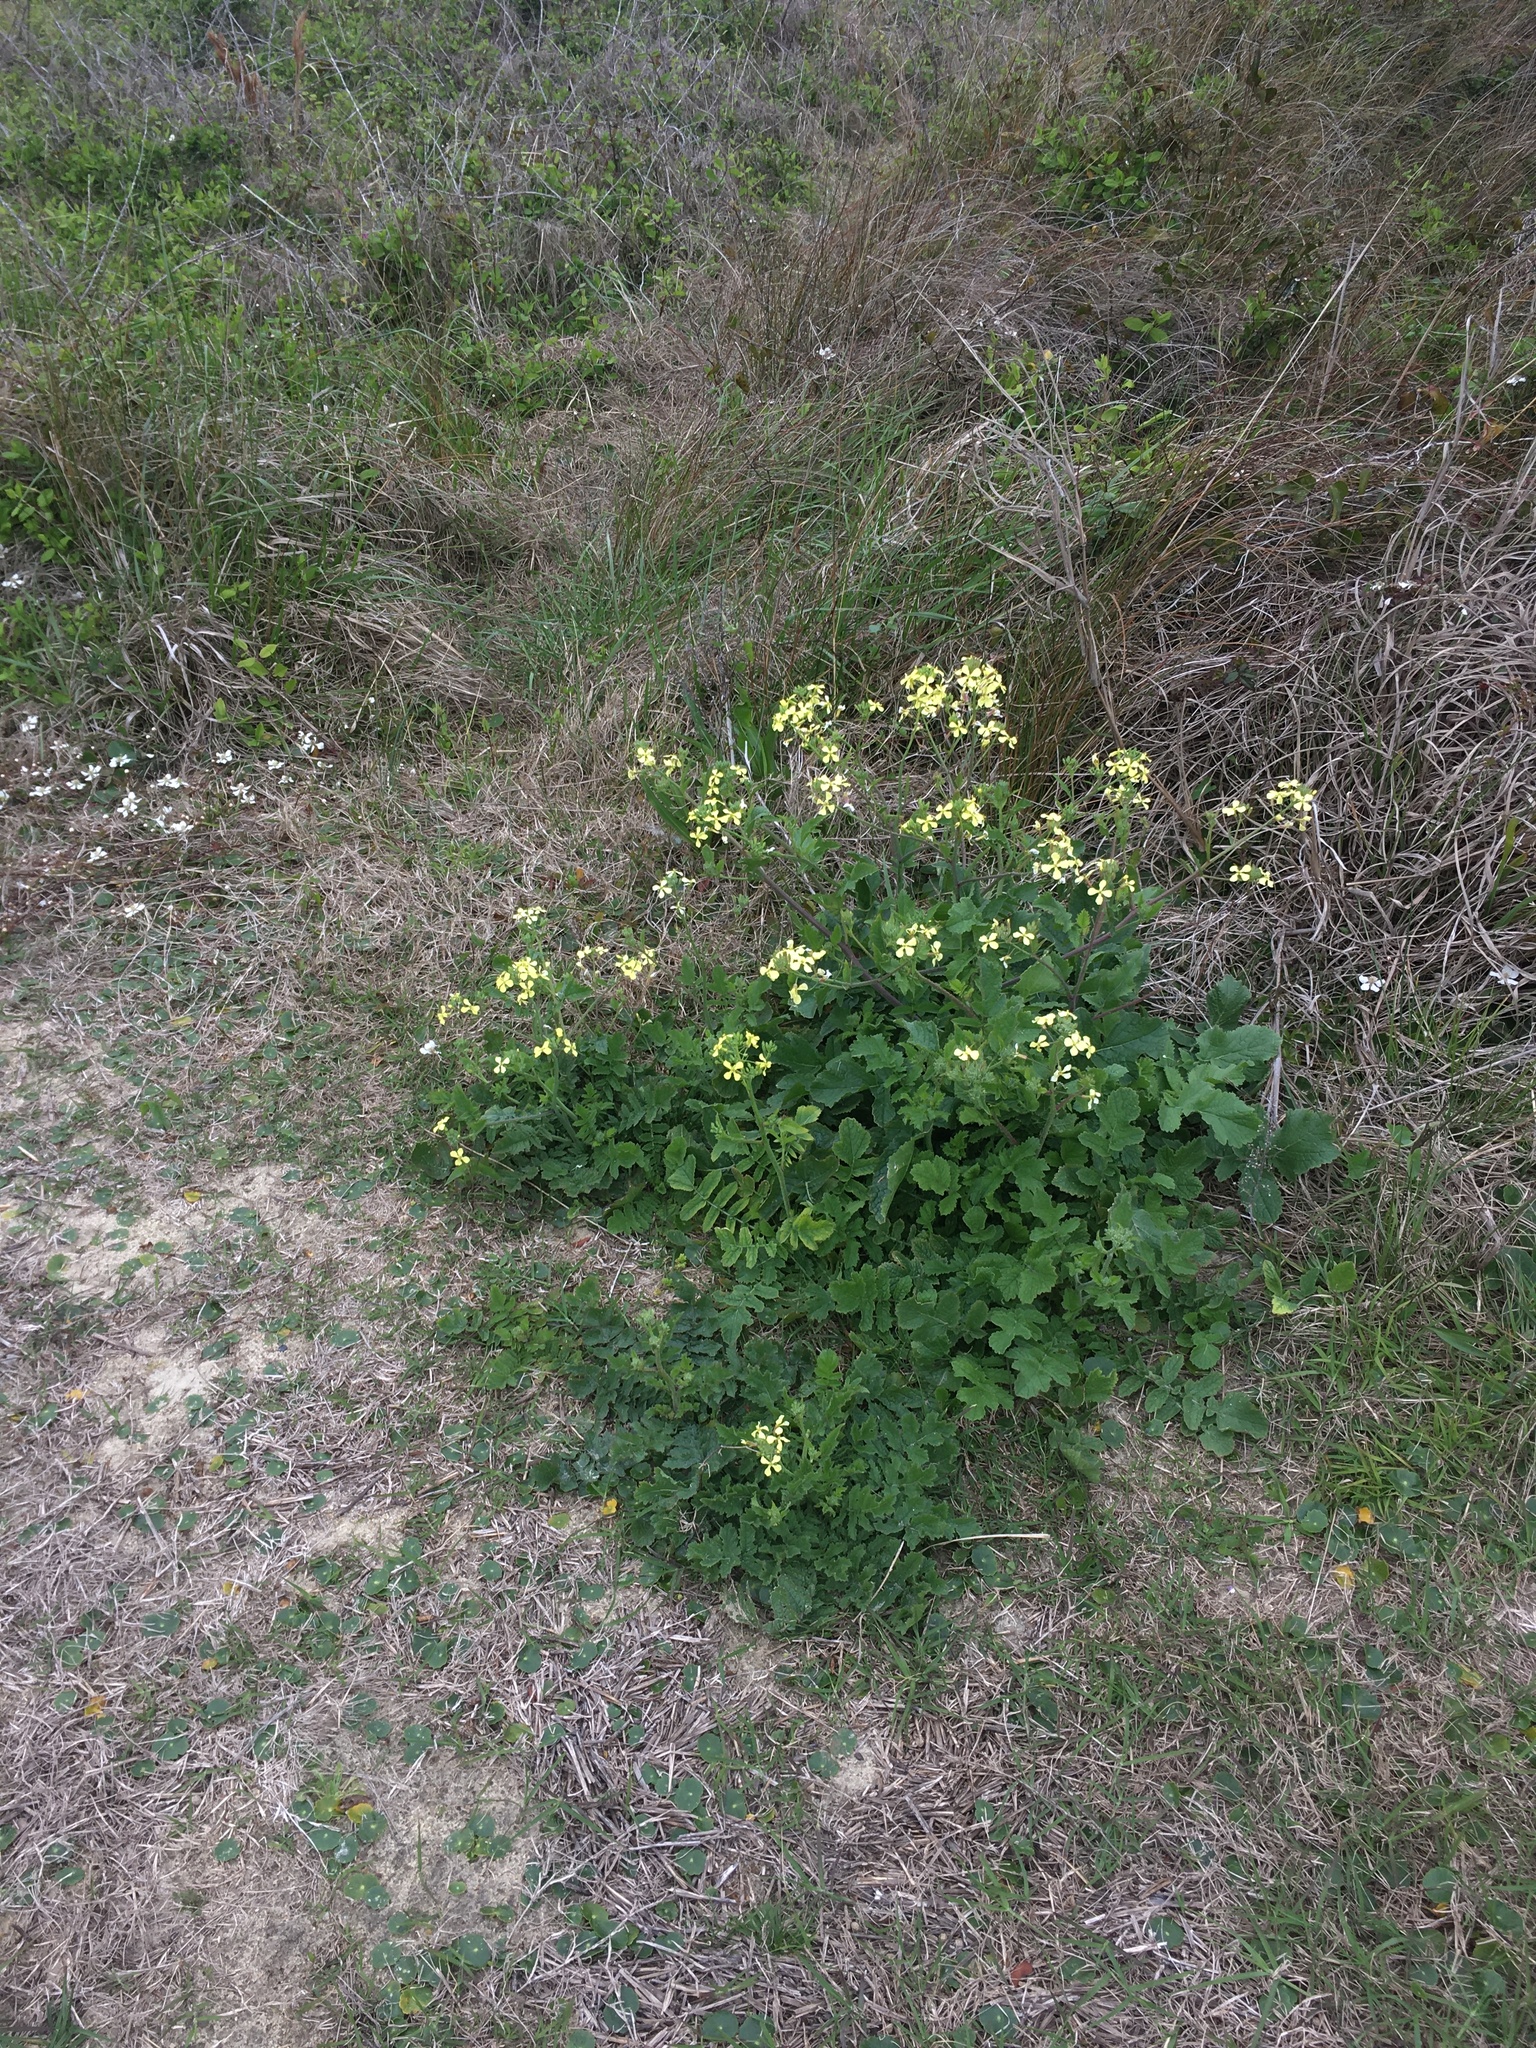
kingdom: Plantae
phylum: Tracheophyta
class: Magnoliopsida
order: Brassicales
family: Brassicaceae
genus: Raphanus
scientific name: Raphanus raphanistrum
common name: Wild radish
